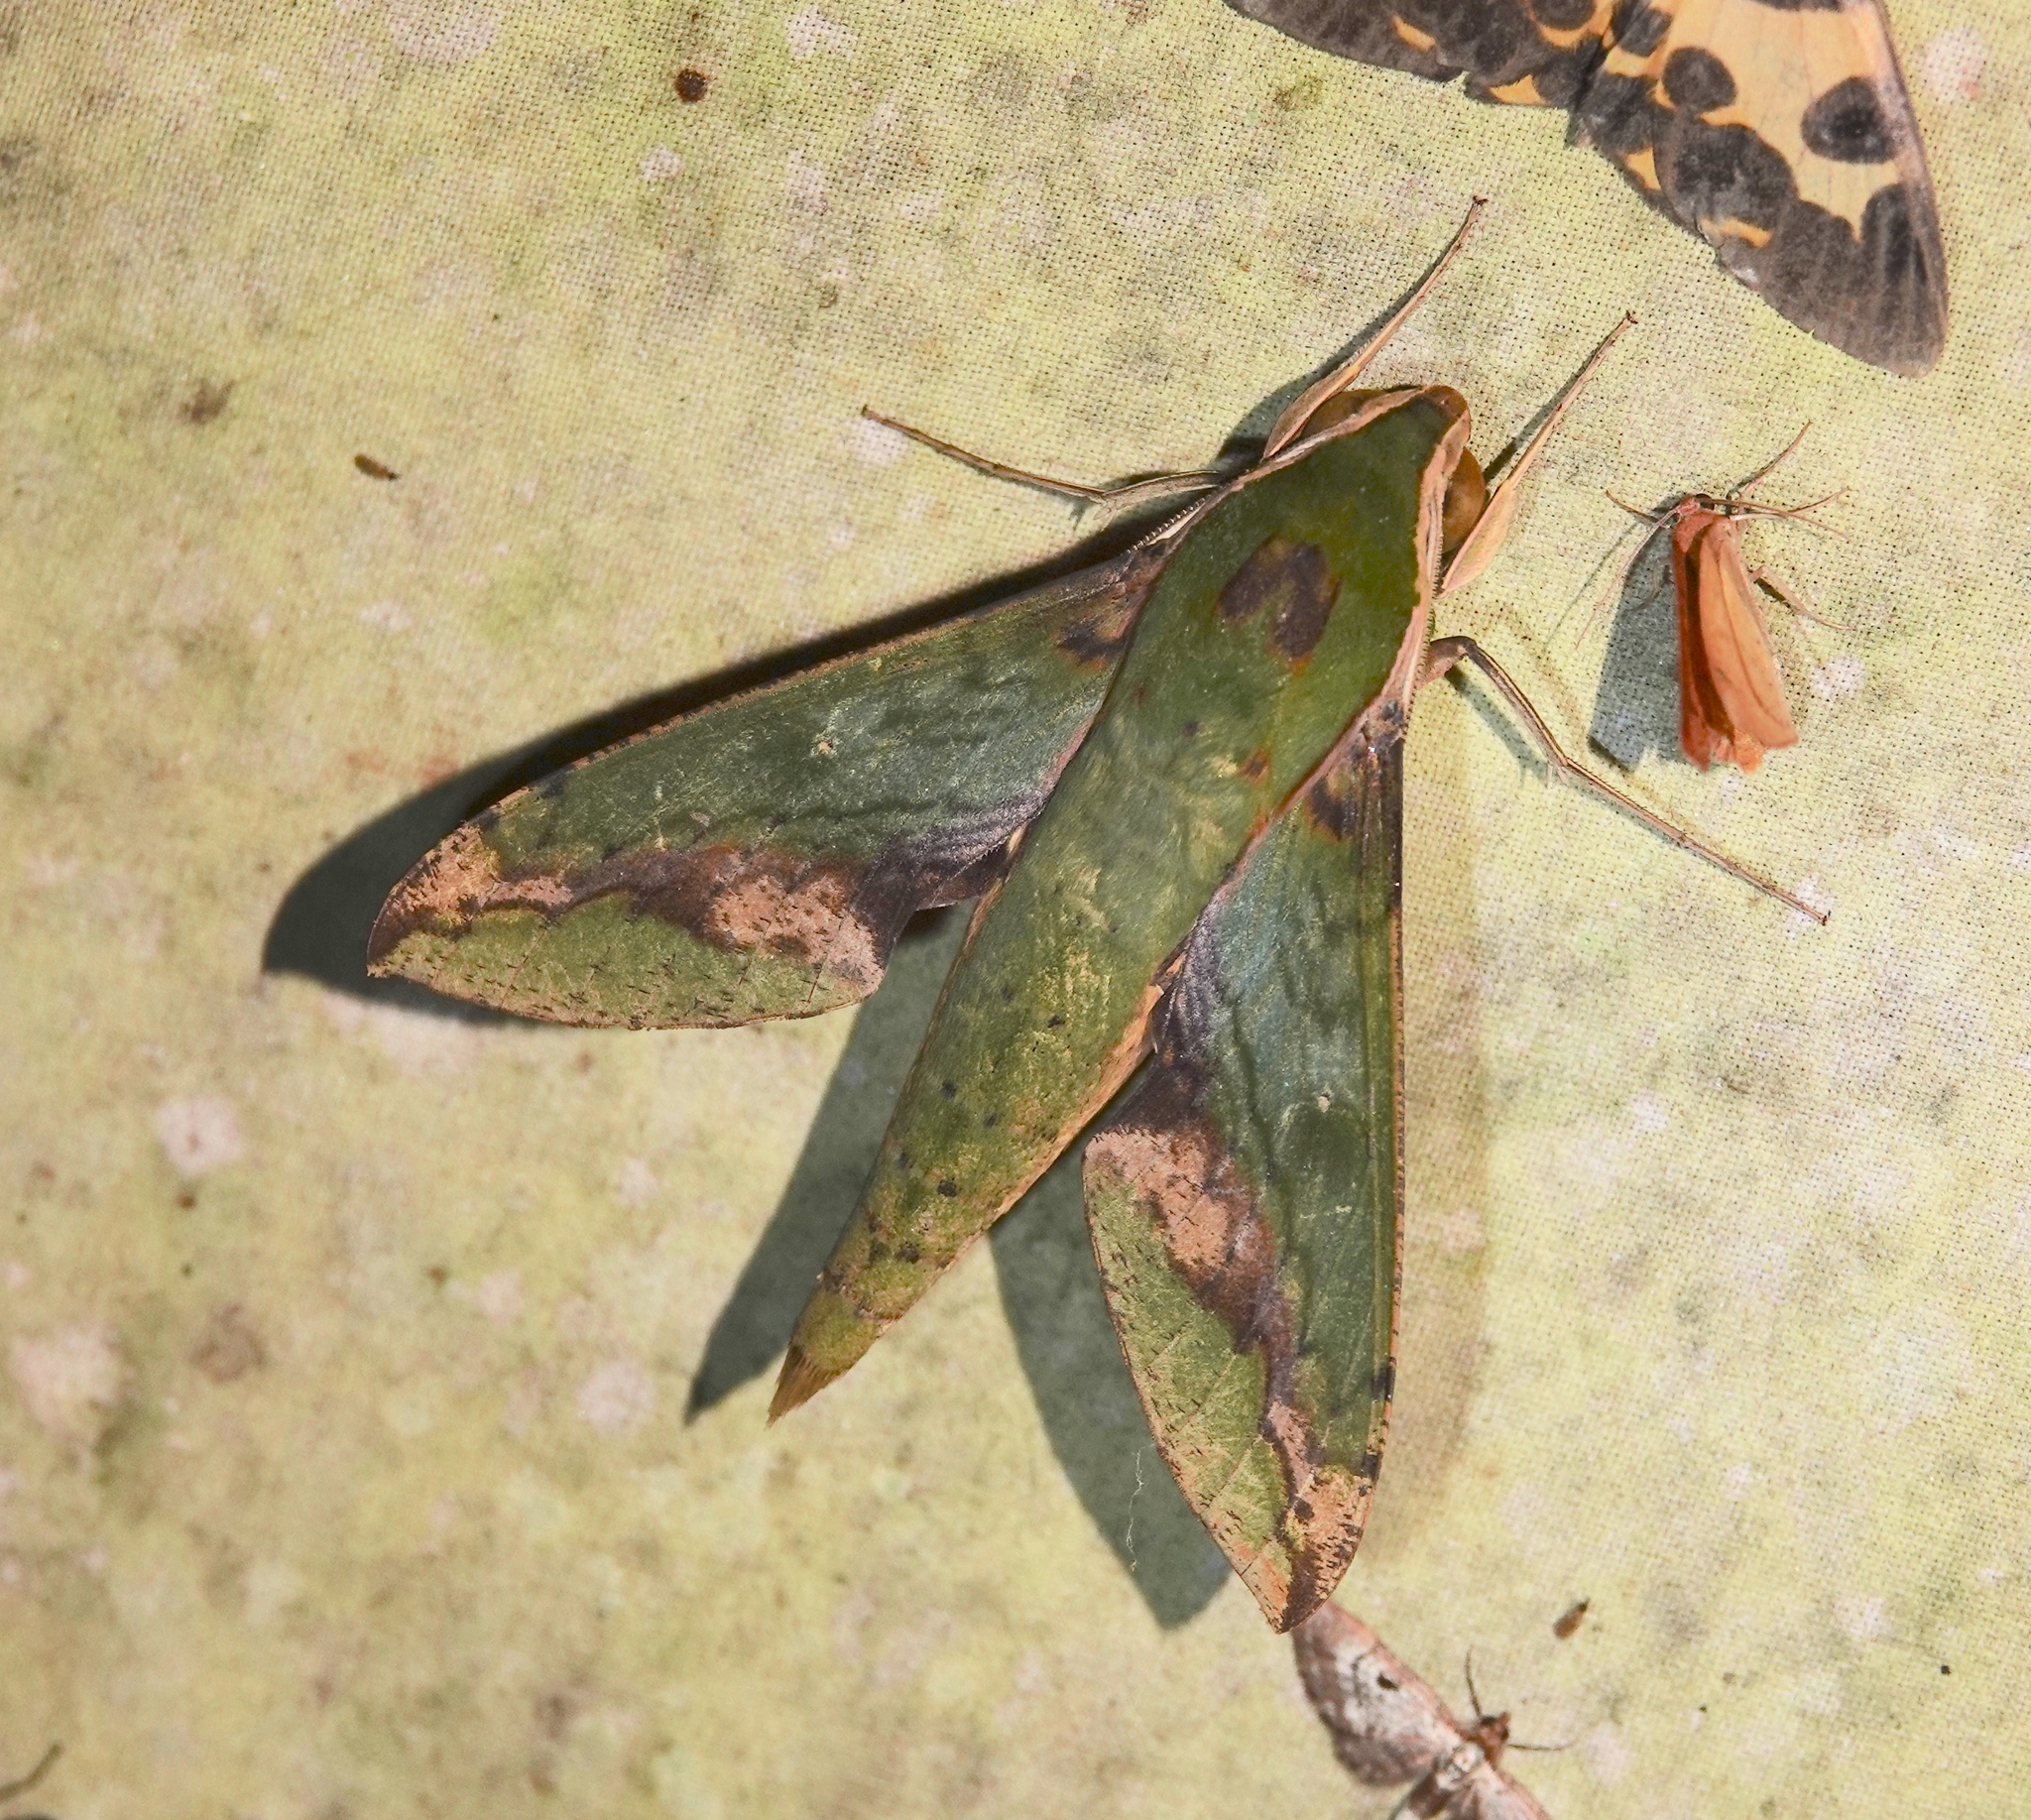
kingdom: Animalia
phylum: Arthropoda
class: Insecta
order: Lepidoptera
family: Sphingidae
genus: Xylophanes
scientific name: Xylophanes chiron
